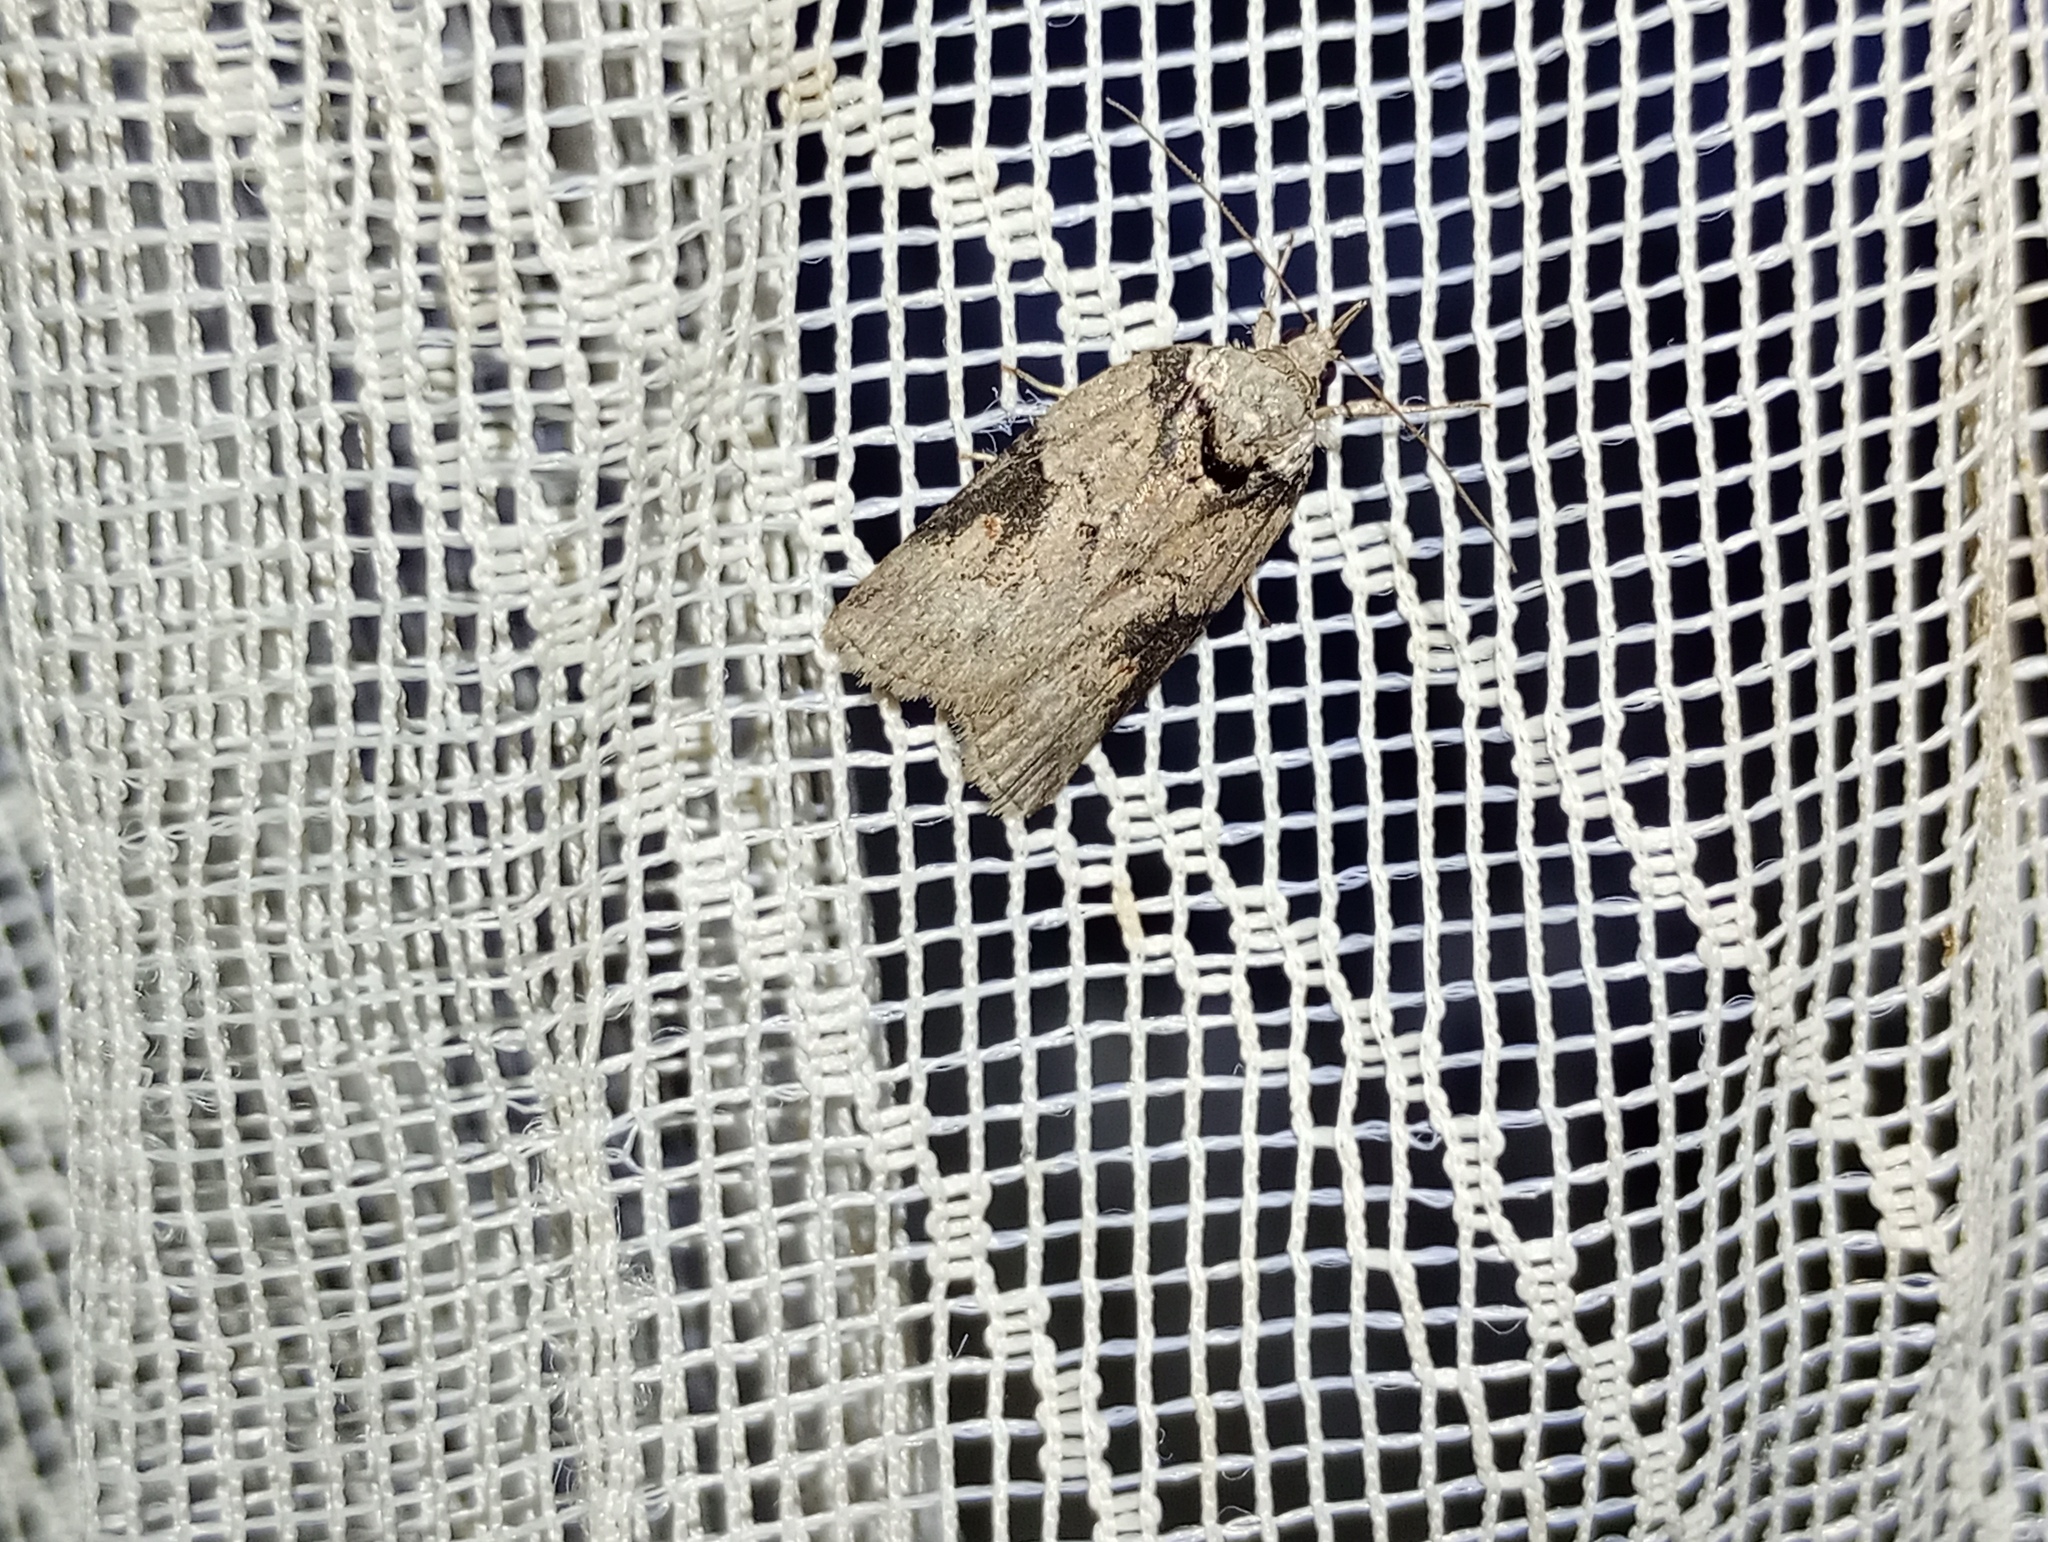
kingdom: Animalia
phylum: Arthropoda
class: Insecta
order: Lepidoptera
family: Nolidae
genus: Nycteola
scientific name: Nycteola revayana
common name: Oak nycteoline
